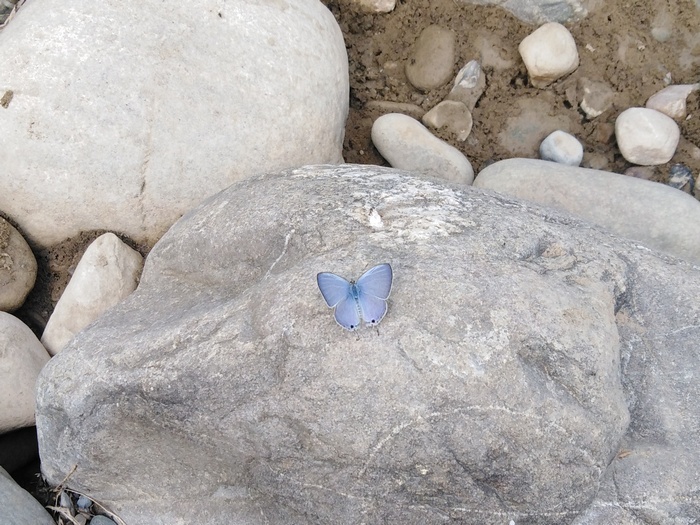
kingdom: Animalia
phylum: Arthropoda
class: Insecta
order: Lepidoptera
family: Lycaenidae
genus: Catochrysops
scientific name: Catochrysops strabo
